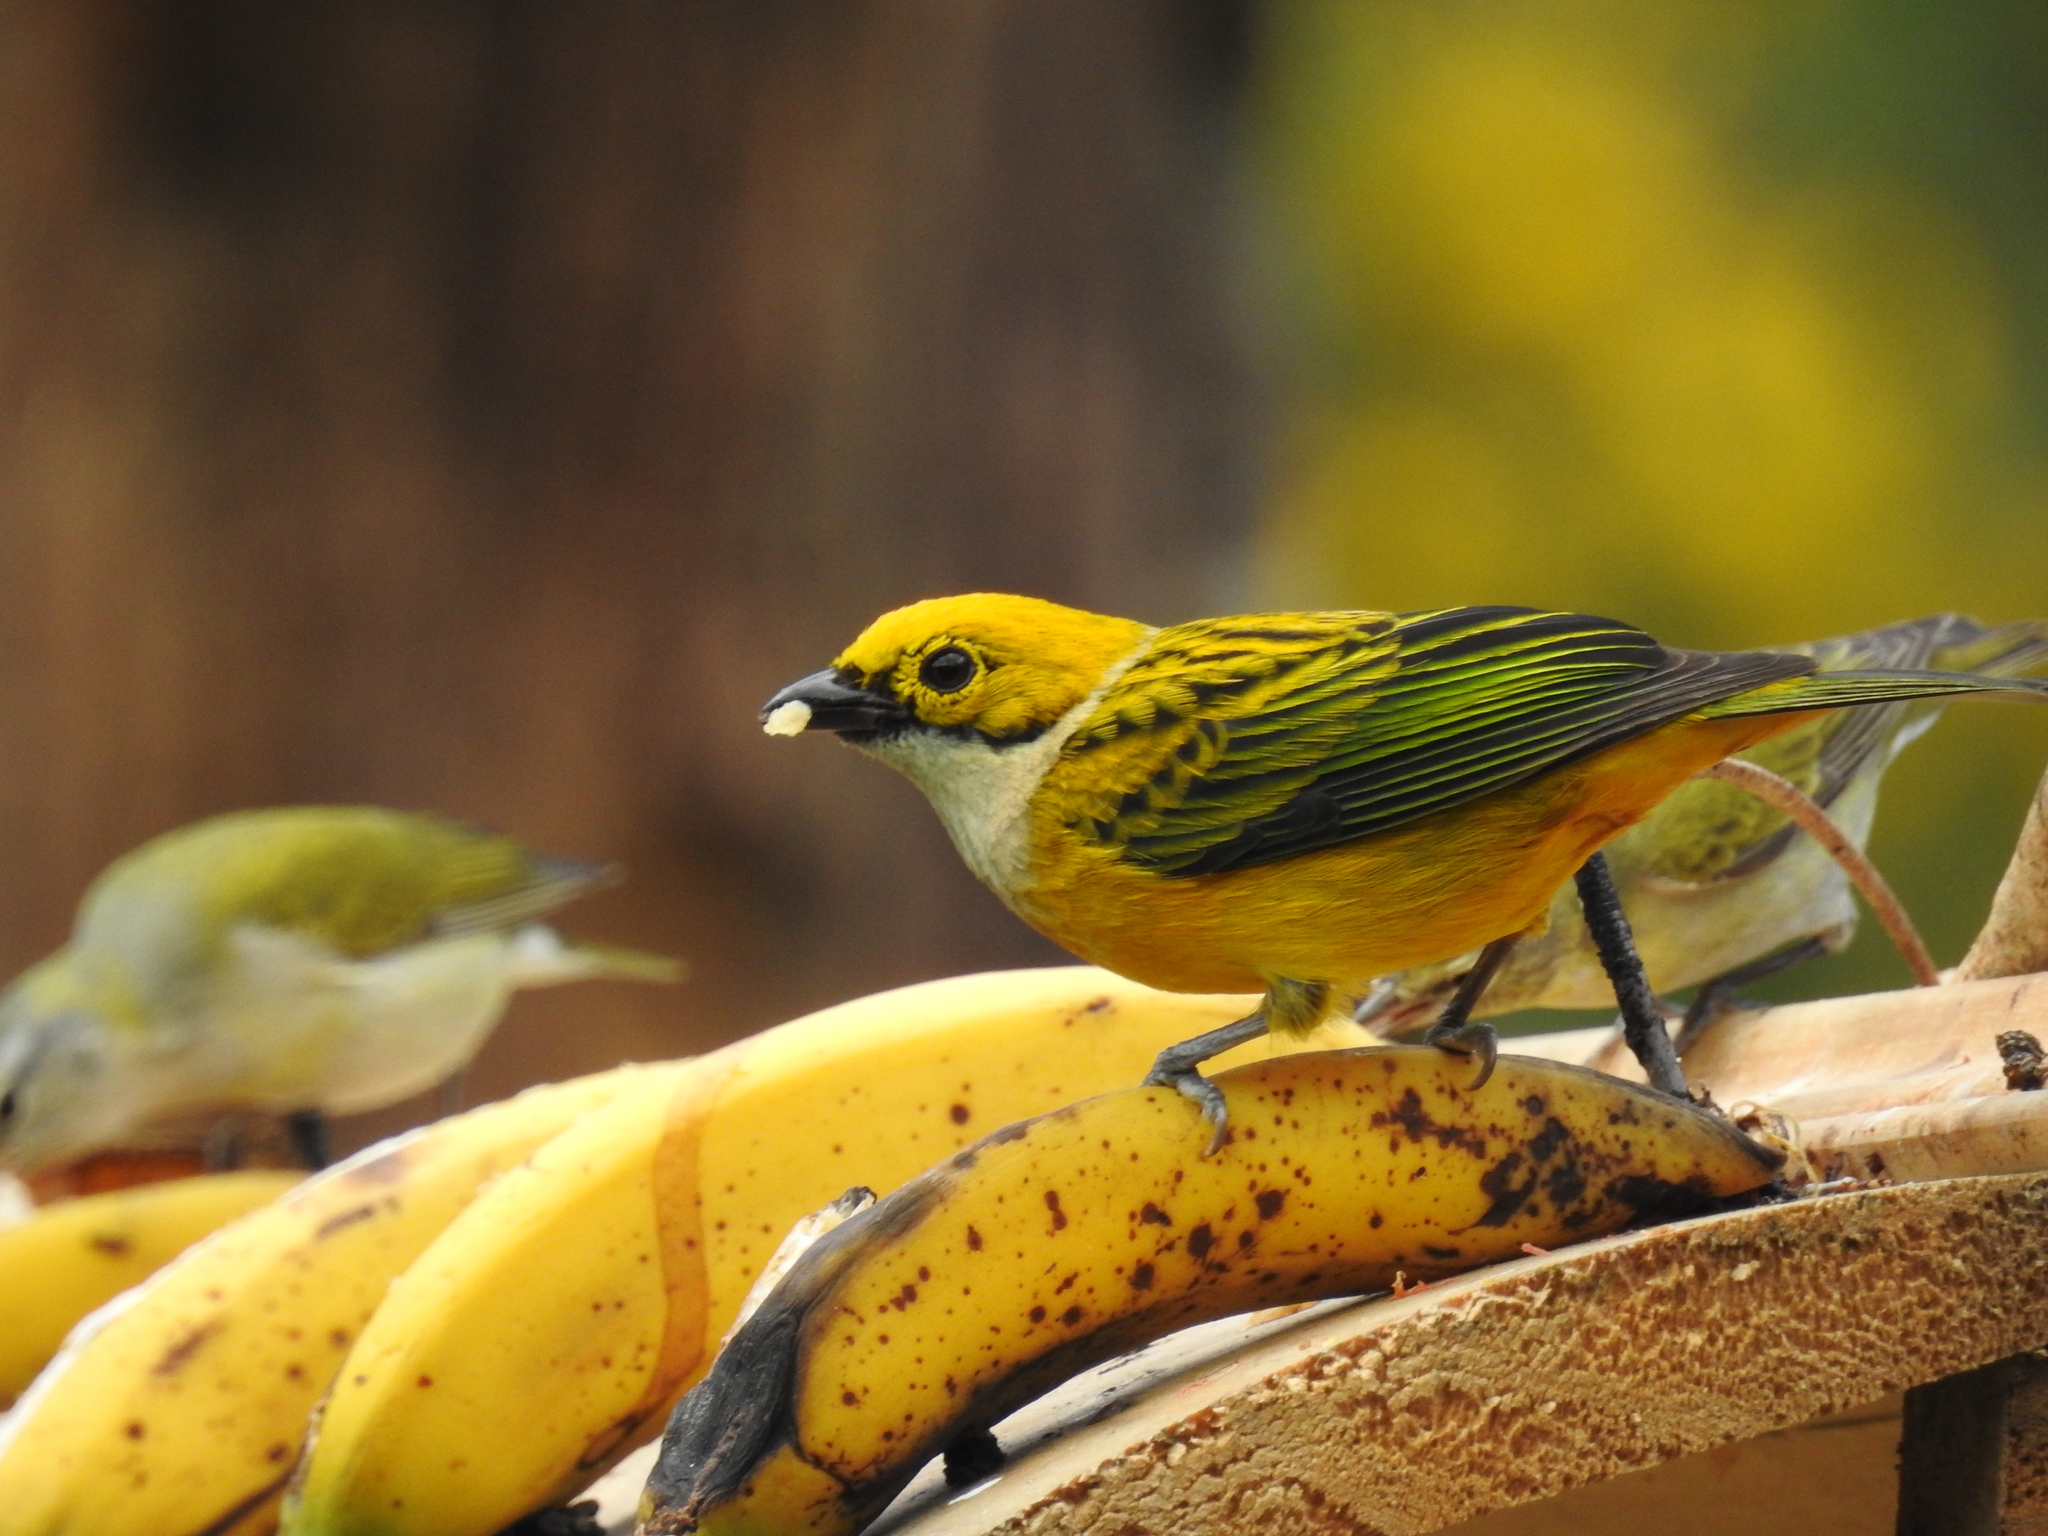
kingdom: Animalia
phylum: Chordata
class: Aves
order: Passeriformes
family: Thraupidae
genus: Tangara
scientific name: Tangara icterocephala
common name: Silver-throated tanager
